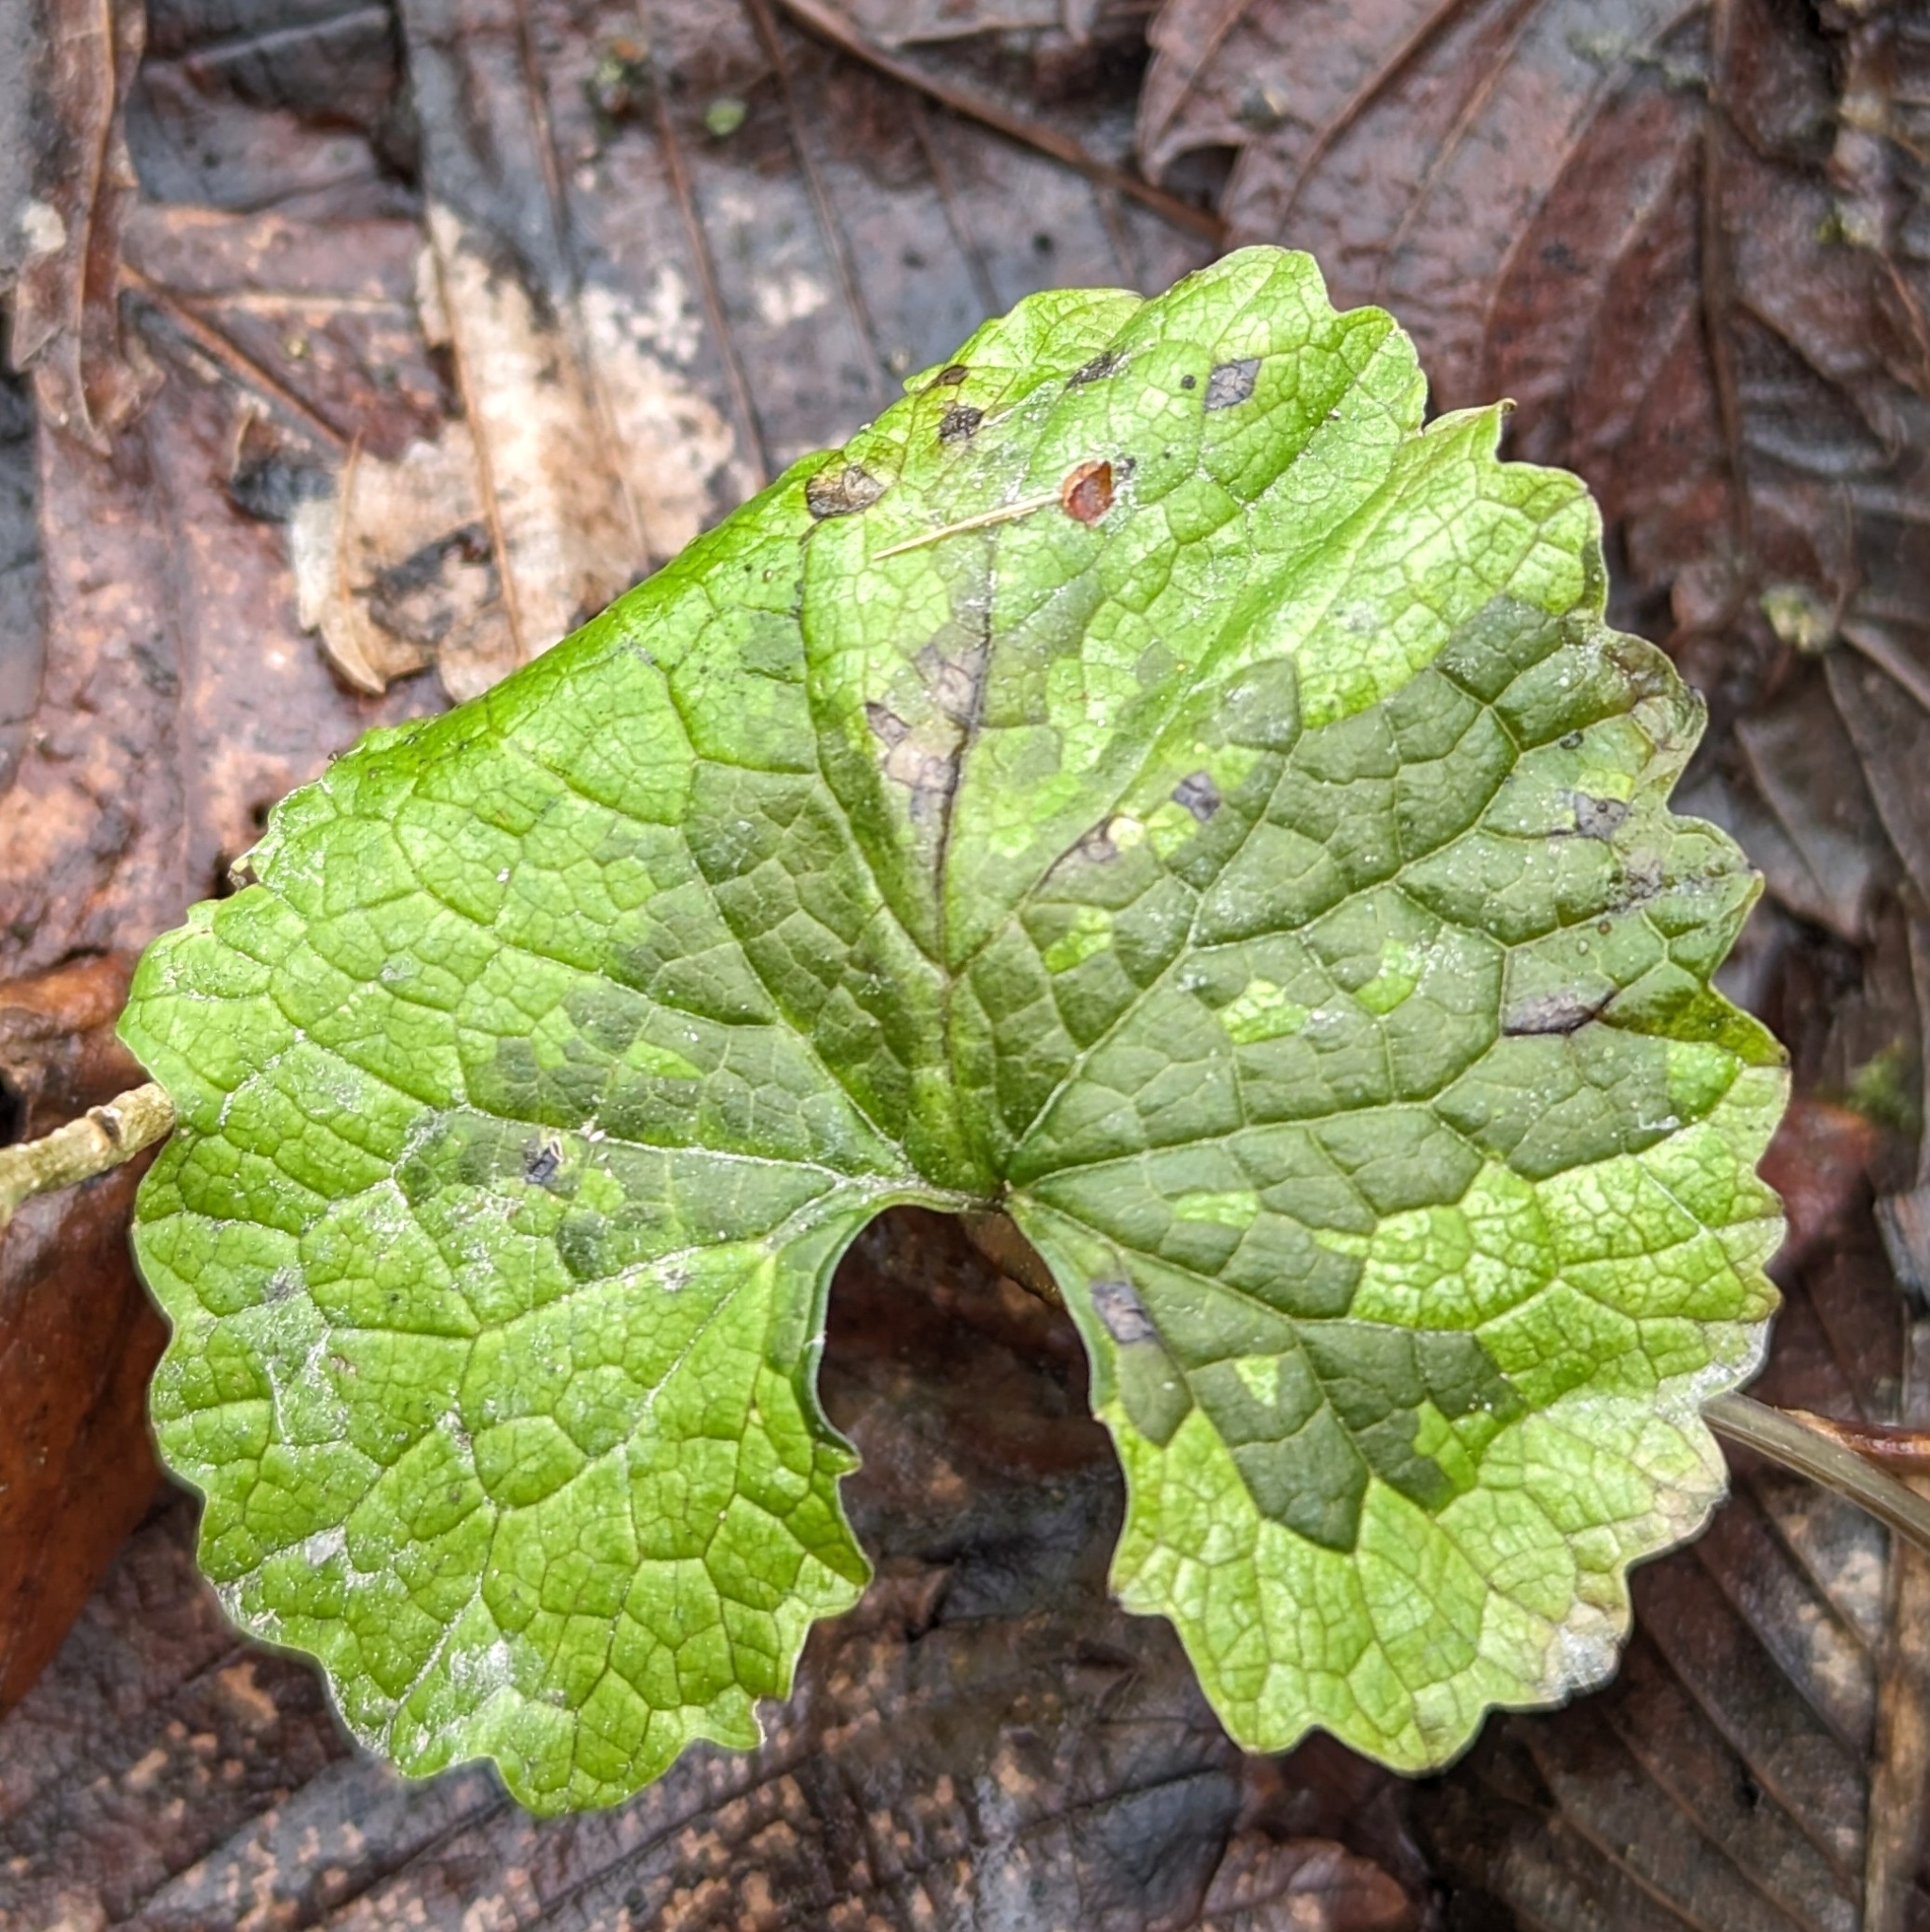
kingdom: Plantae
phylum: Tracheophyta
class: Magnoliopsida
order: Brassicales
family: Brassicaceae
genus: Alliaria
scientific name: Alliaria petiolata
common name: Garlic mustard
